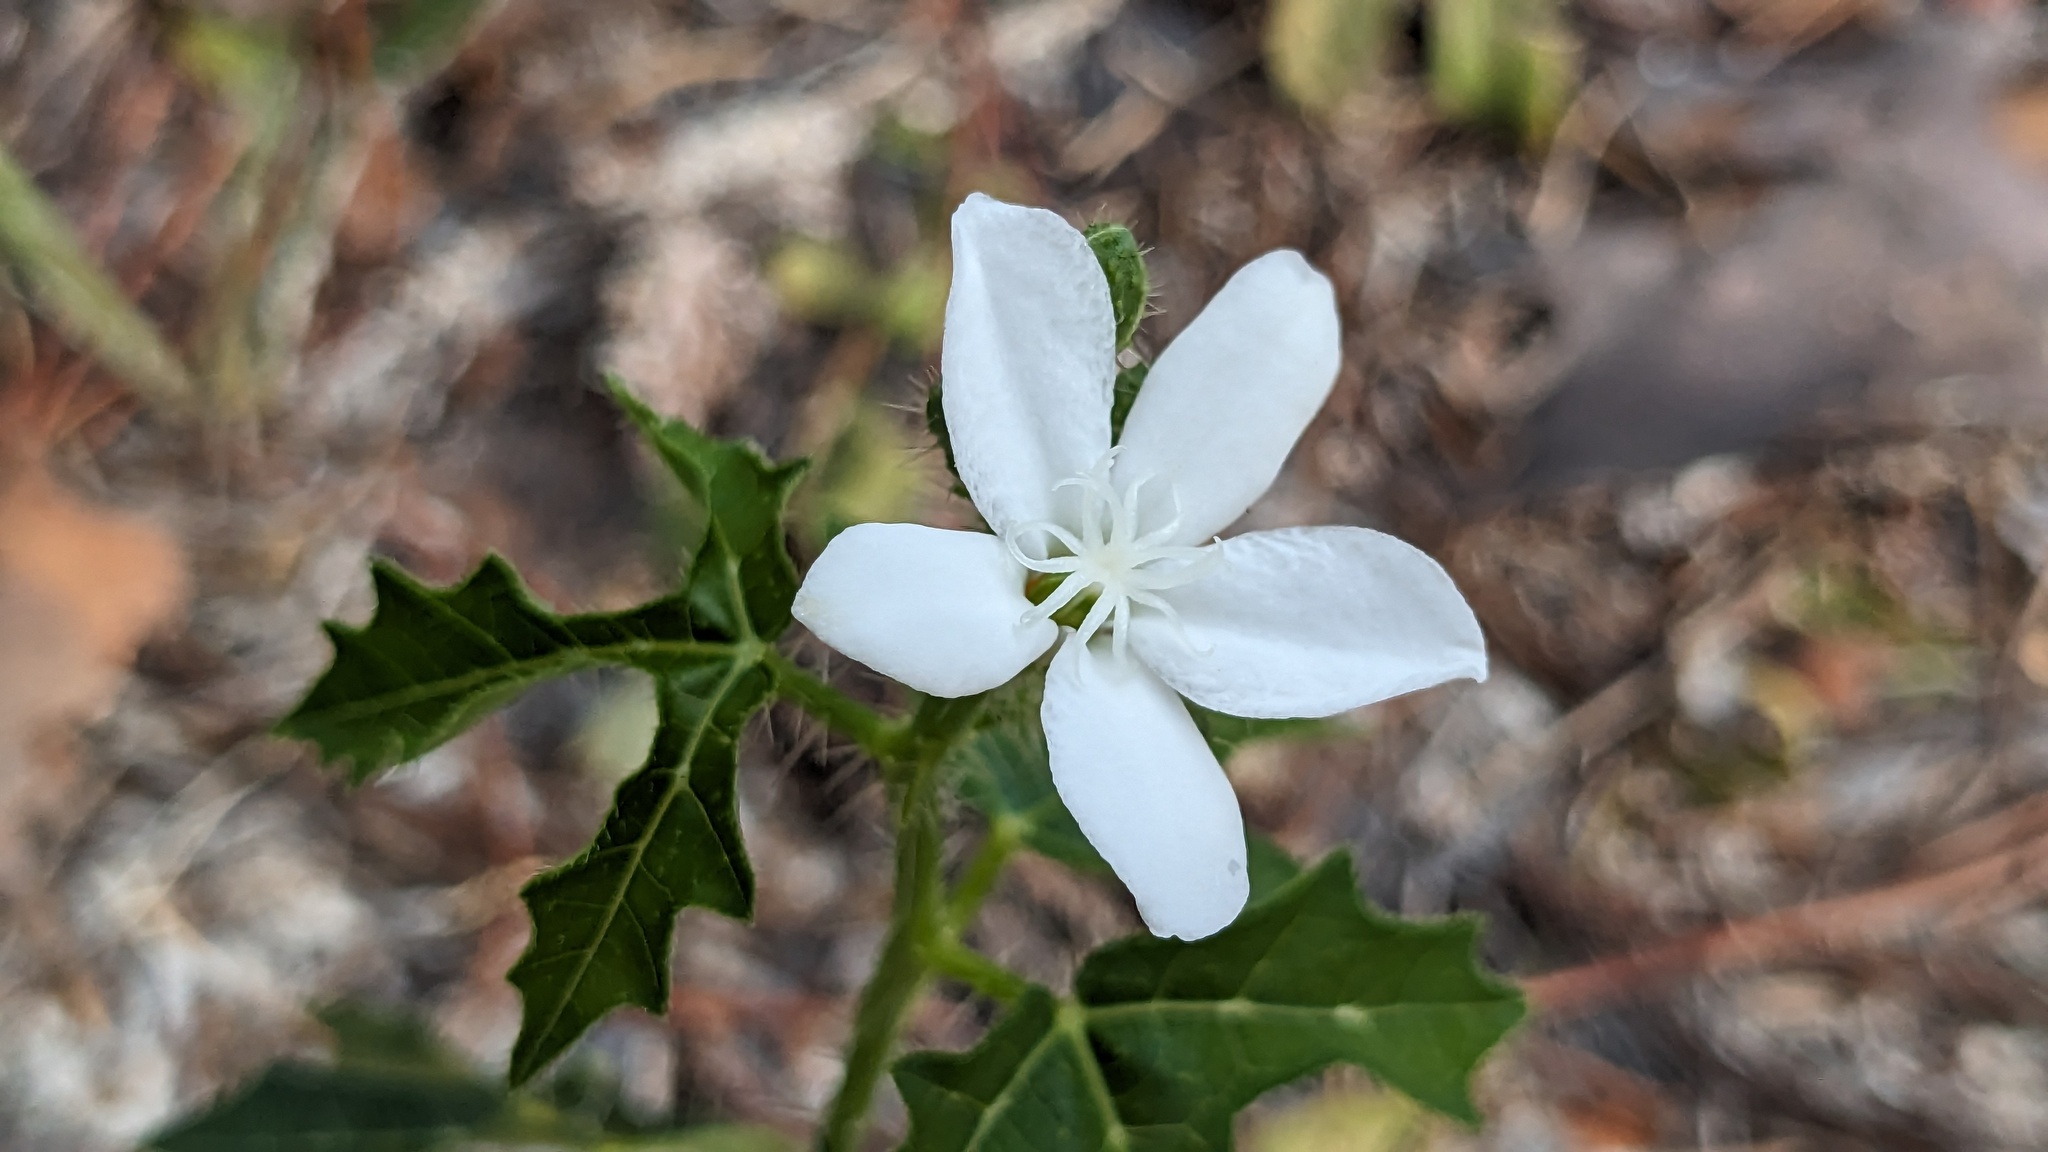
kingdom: Plantae
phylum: Tracheophyta
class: Magnoliopsida
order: Malpighiales
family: Euphorbiaceae
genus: Cnidoscolus
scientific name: Cnidoscolus stimulosus
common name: Bull-nettle
